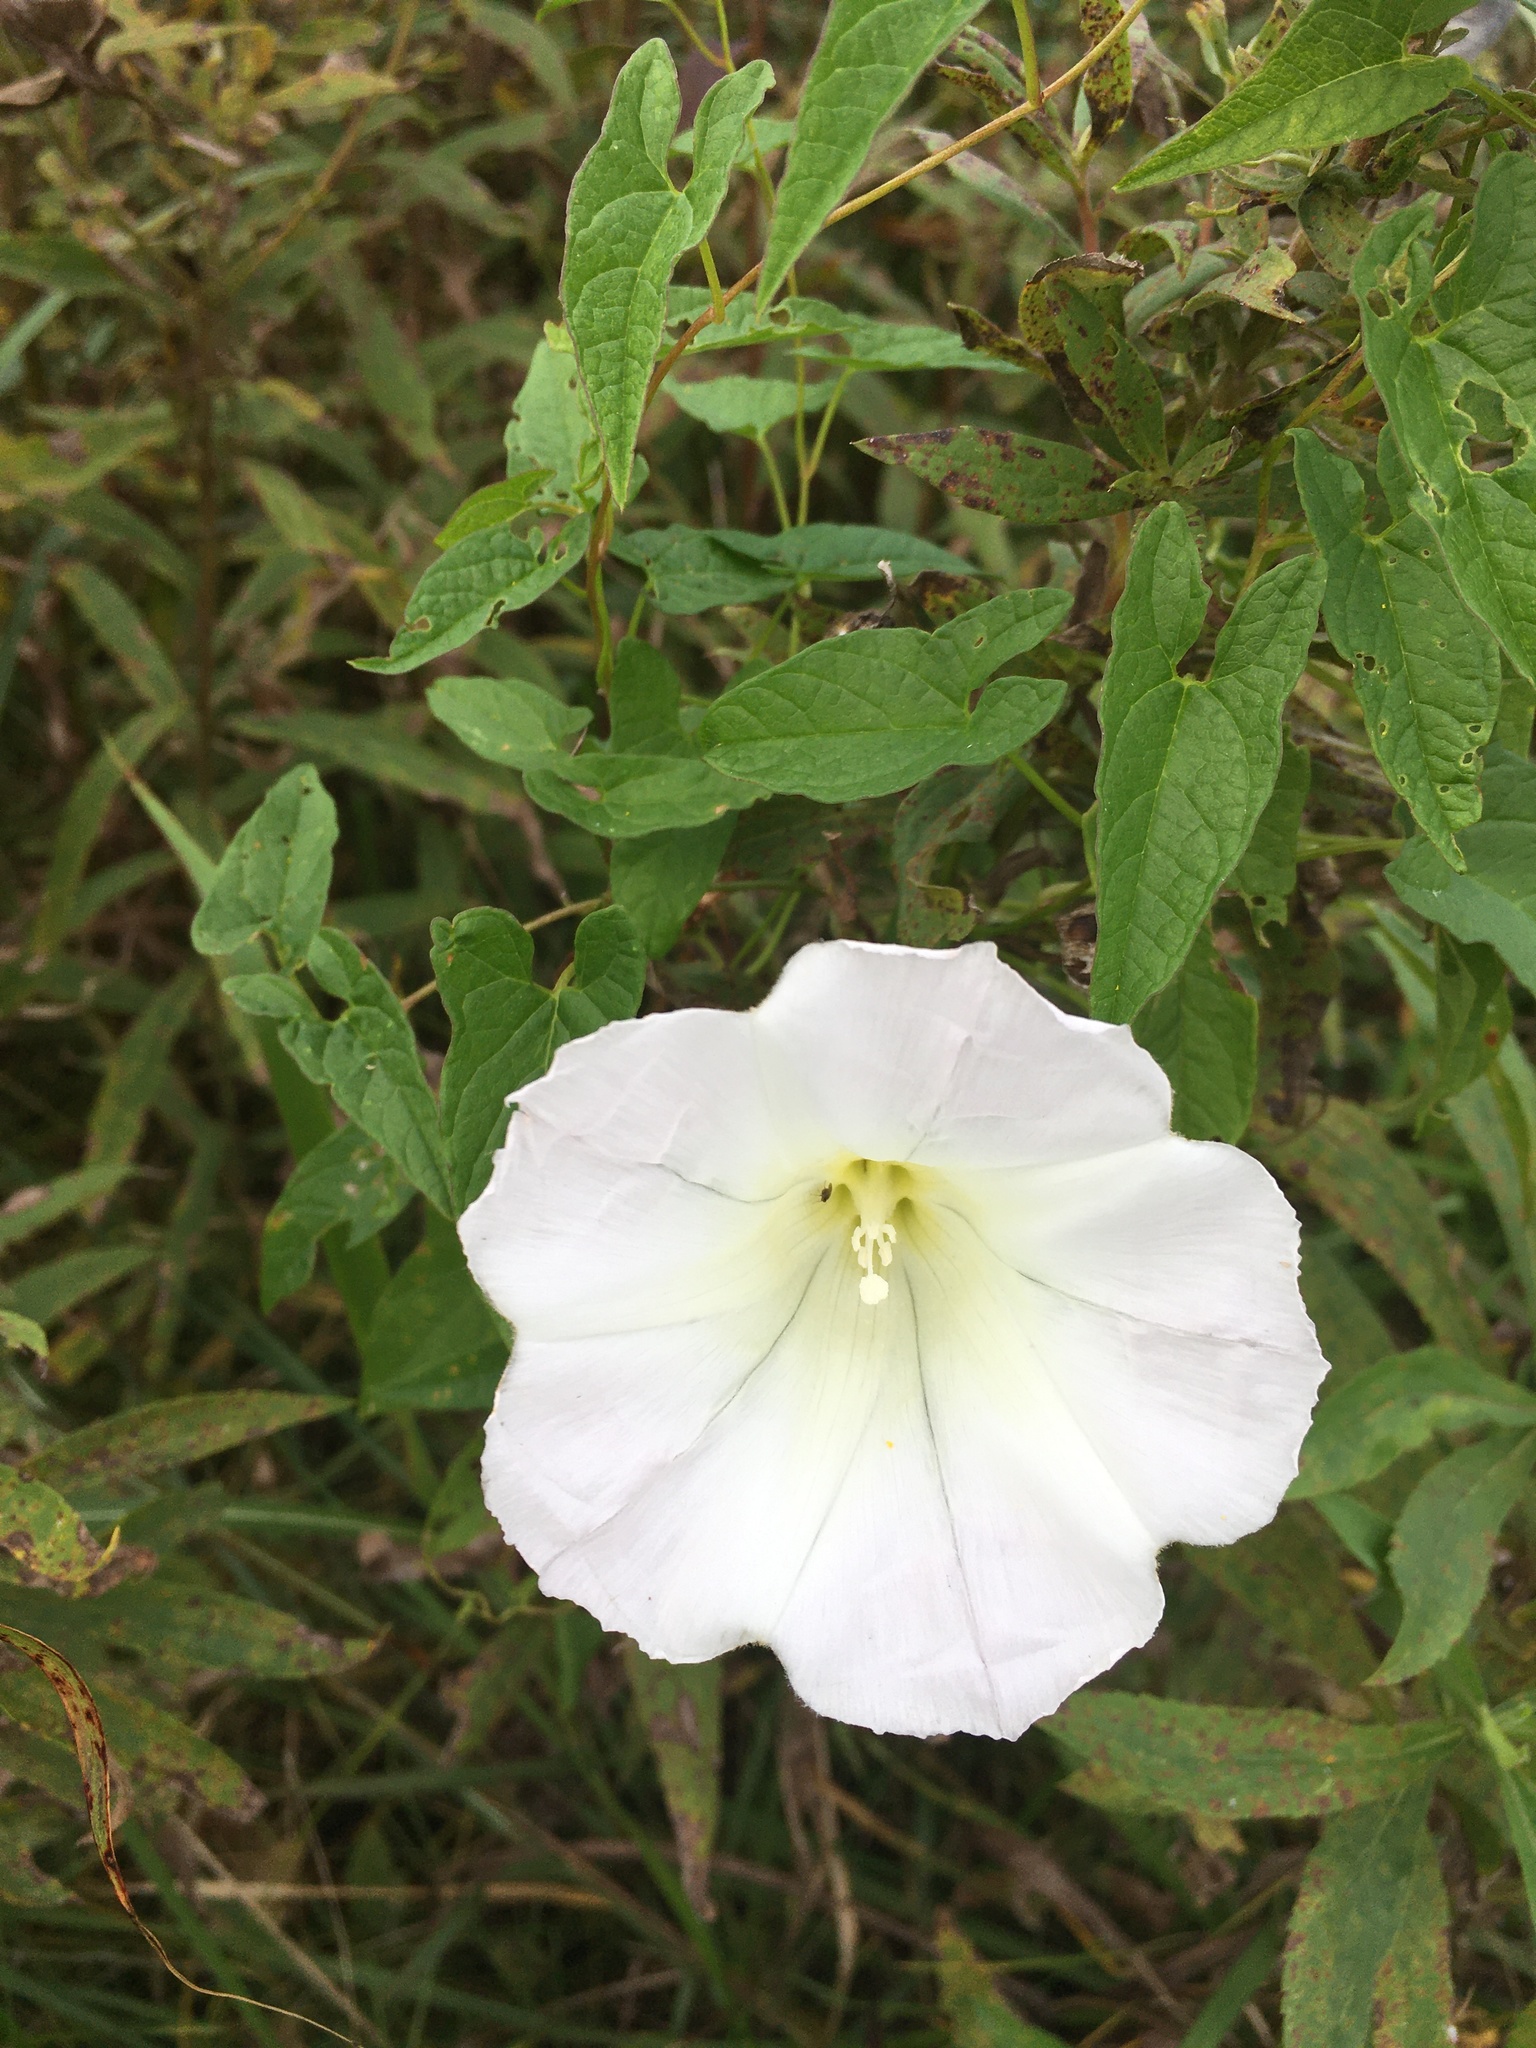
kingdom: Plantae
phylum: Tracheophyta
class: Magnoliopsida
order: Solanales
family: Convolvulaceae
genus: Calystegia
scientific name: Calystegia silvatica
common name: Large bindweed
